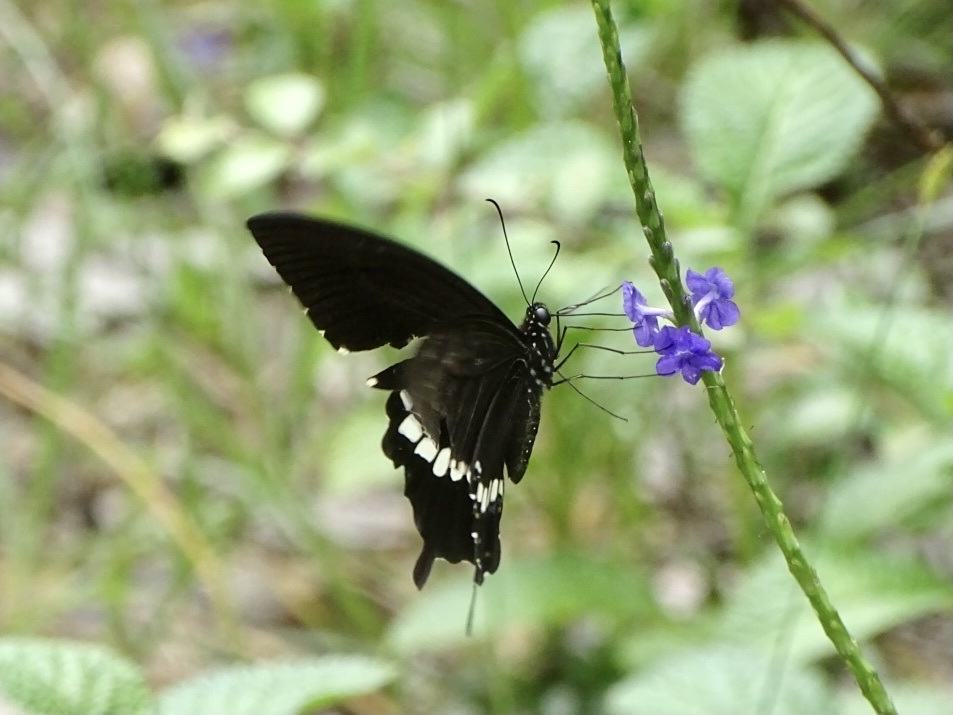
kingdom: Animalia
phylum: Arthropoda
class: Insecta
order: Lepidoptera
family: Papilionidae
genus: Papilio
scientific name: Papilio polytes
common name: Common mormon
